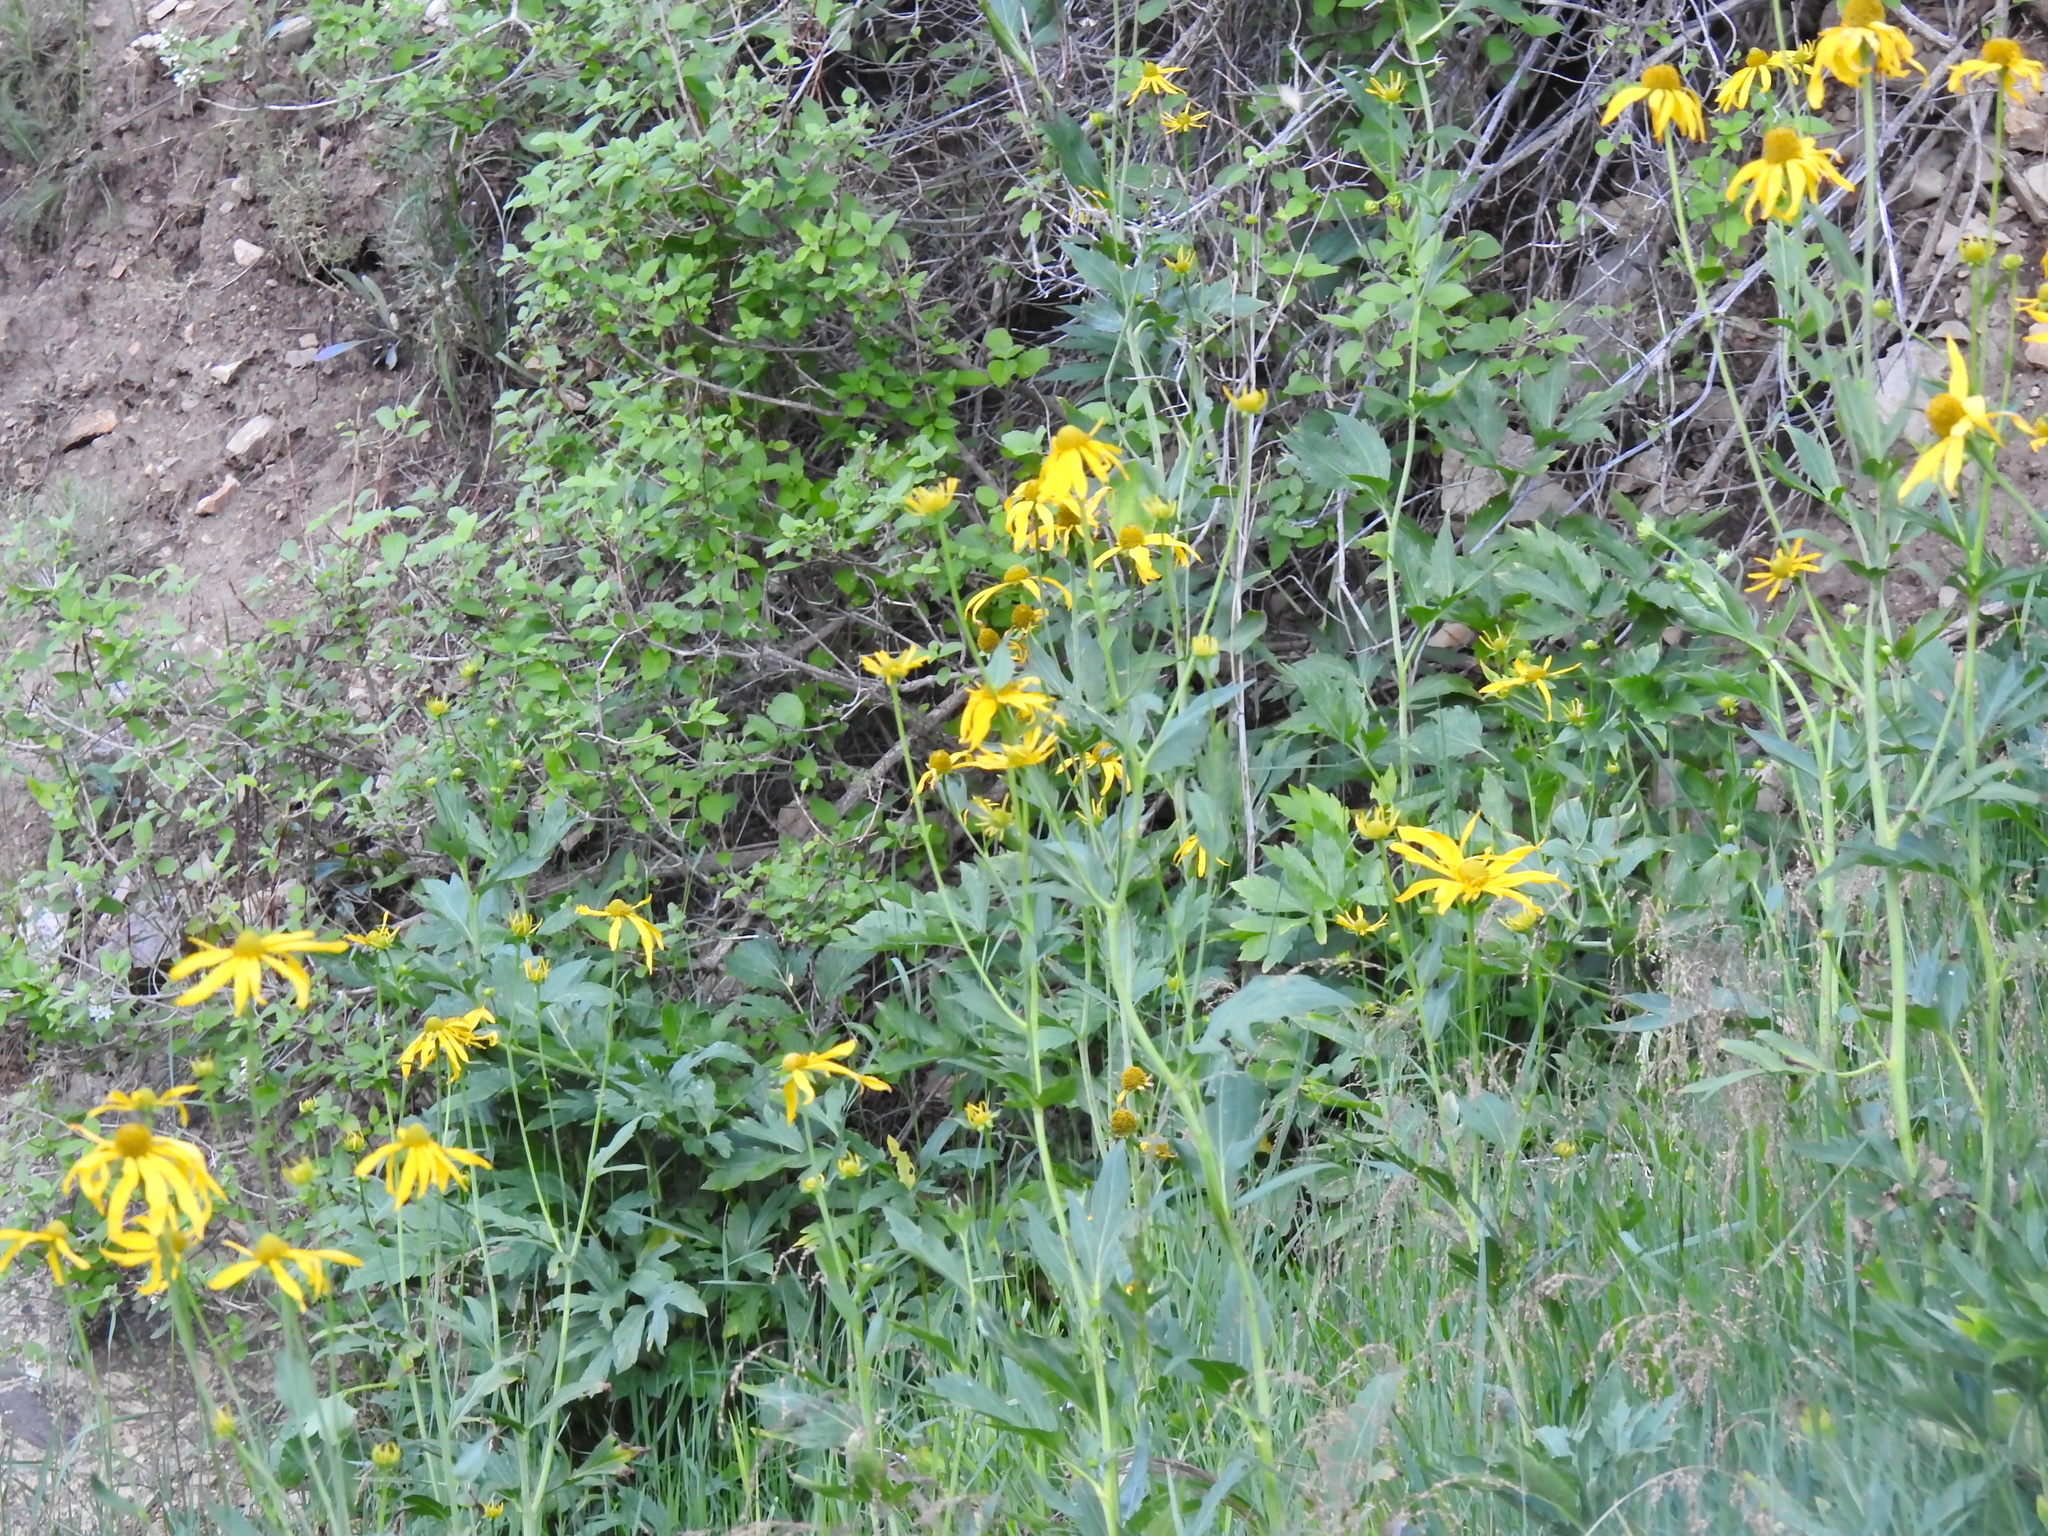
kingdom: Plantae
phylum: Tracheophyta
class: Magnoliopsida
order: Asterales
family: Asteraceae
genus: Rudbeckia
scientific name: Rudbeckia laciniata
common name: Coneflower
